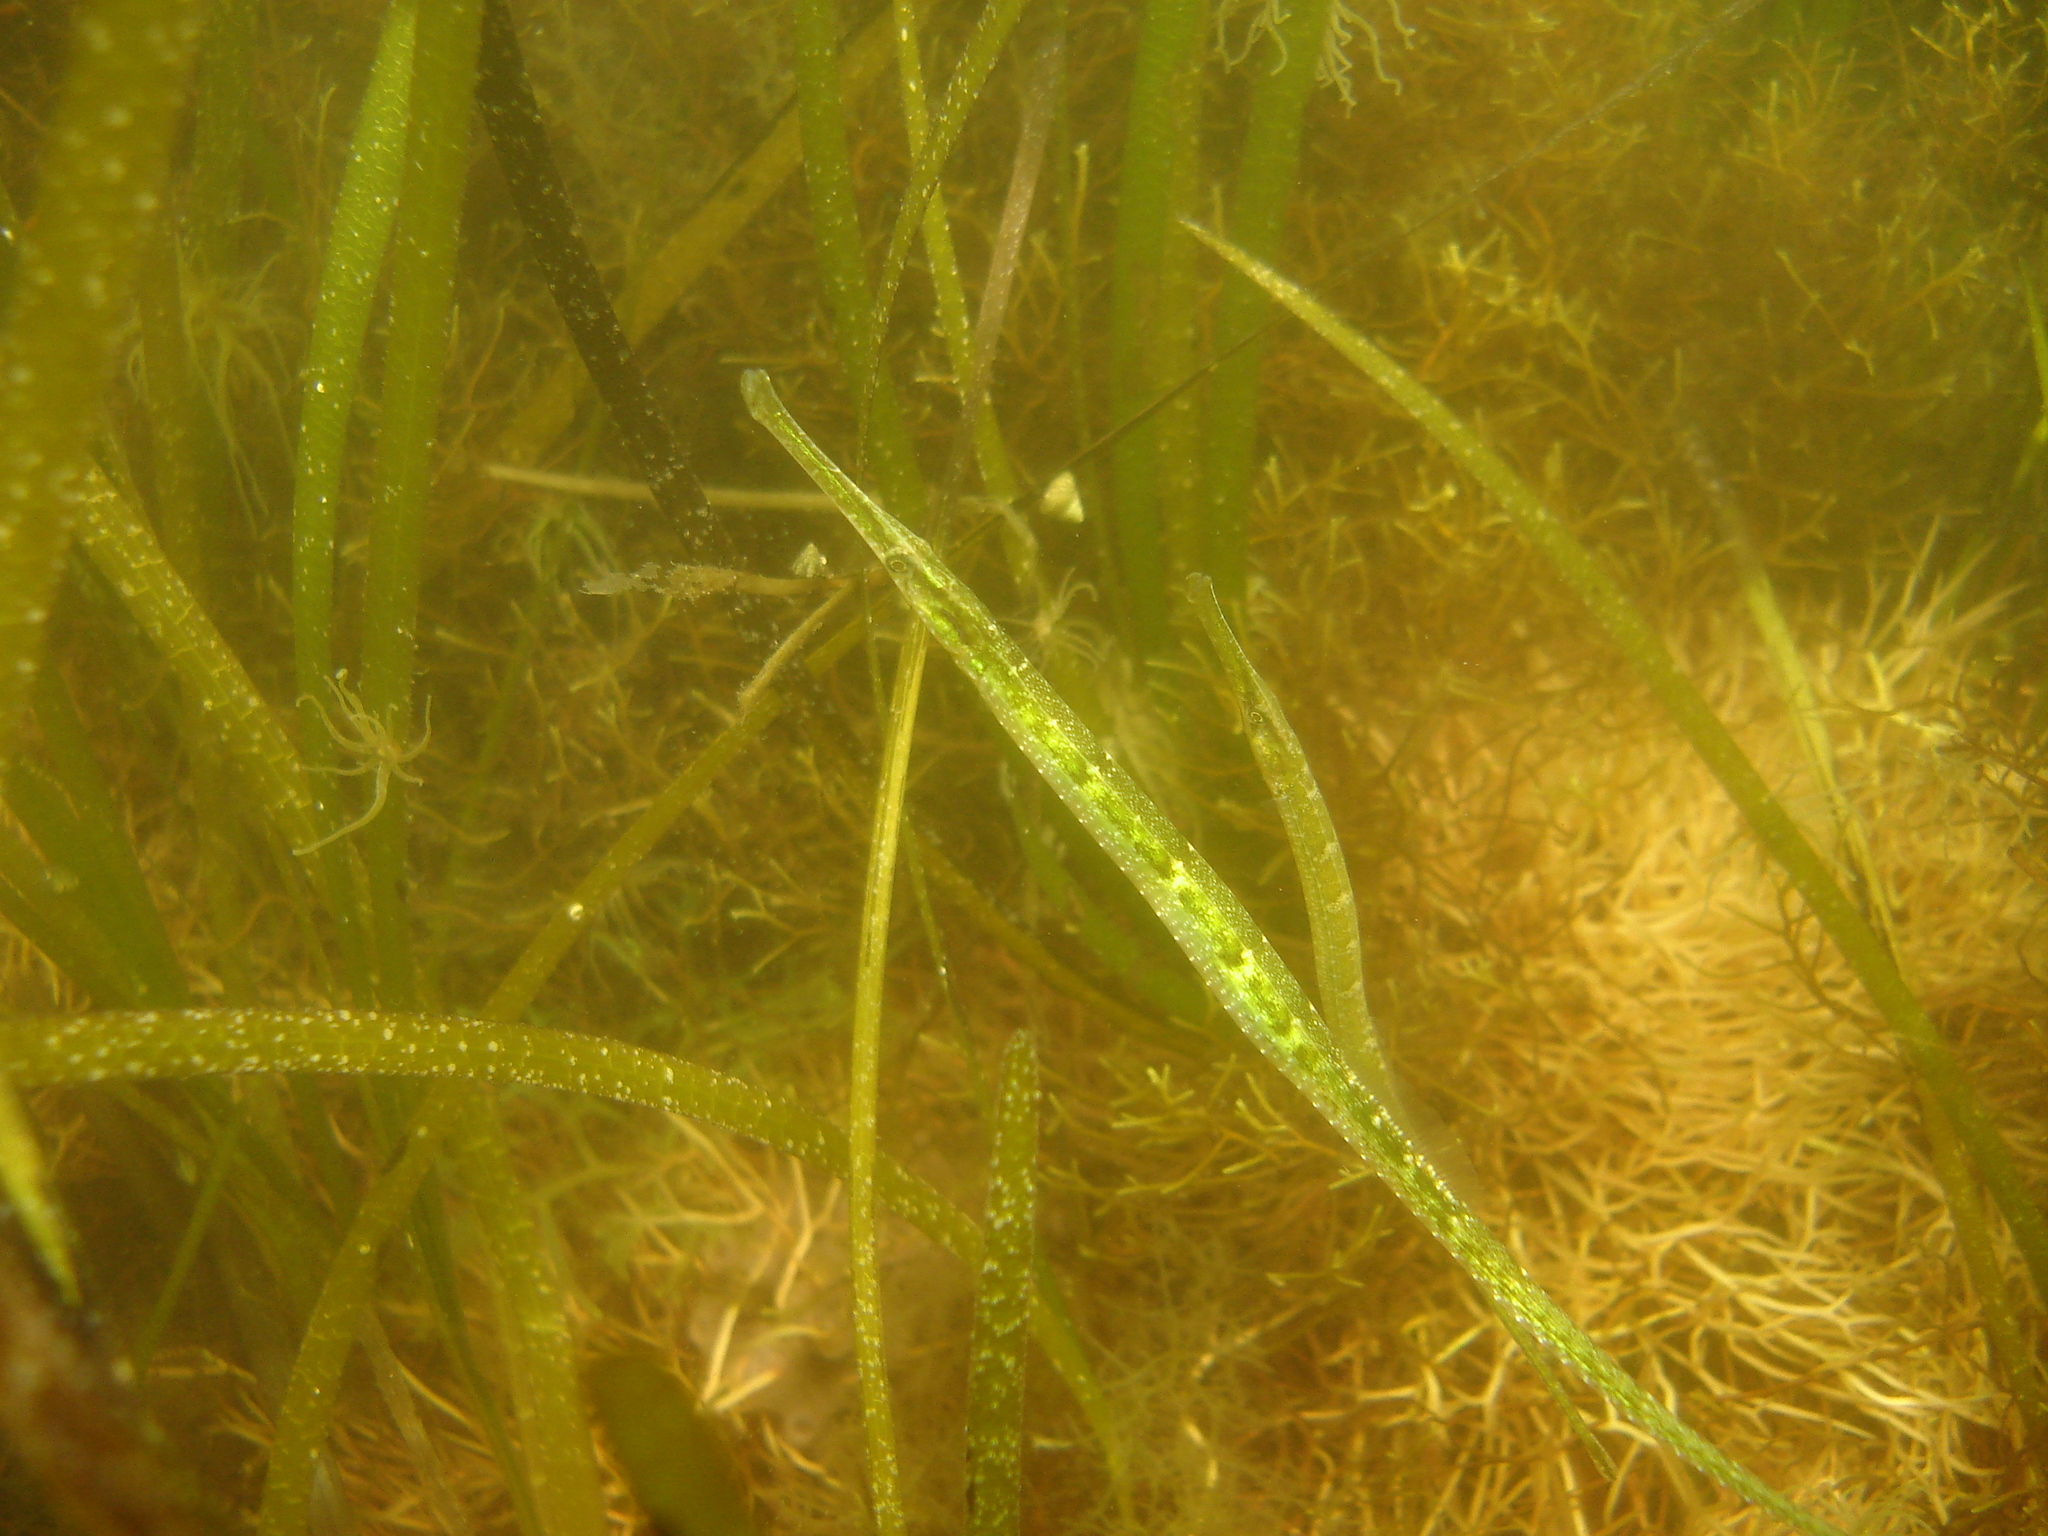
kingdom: Animalia
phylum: Chordata
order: Syngnathiformes
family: Syngnathidae
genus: Syngnathus
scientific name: Syngnathus
